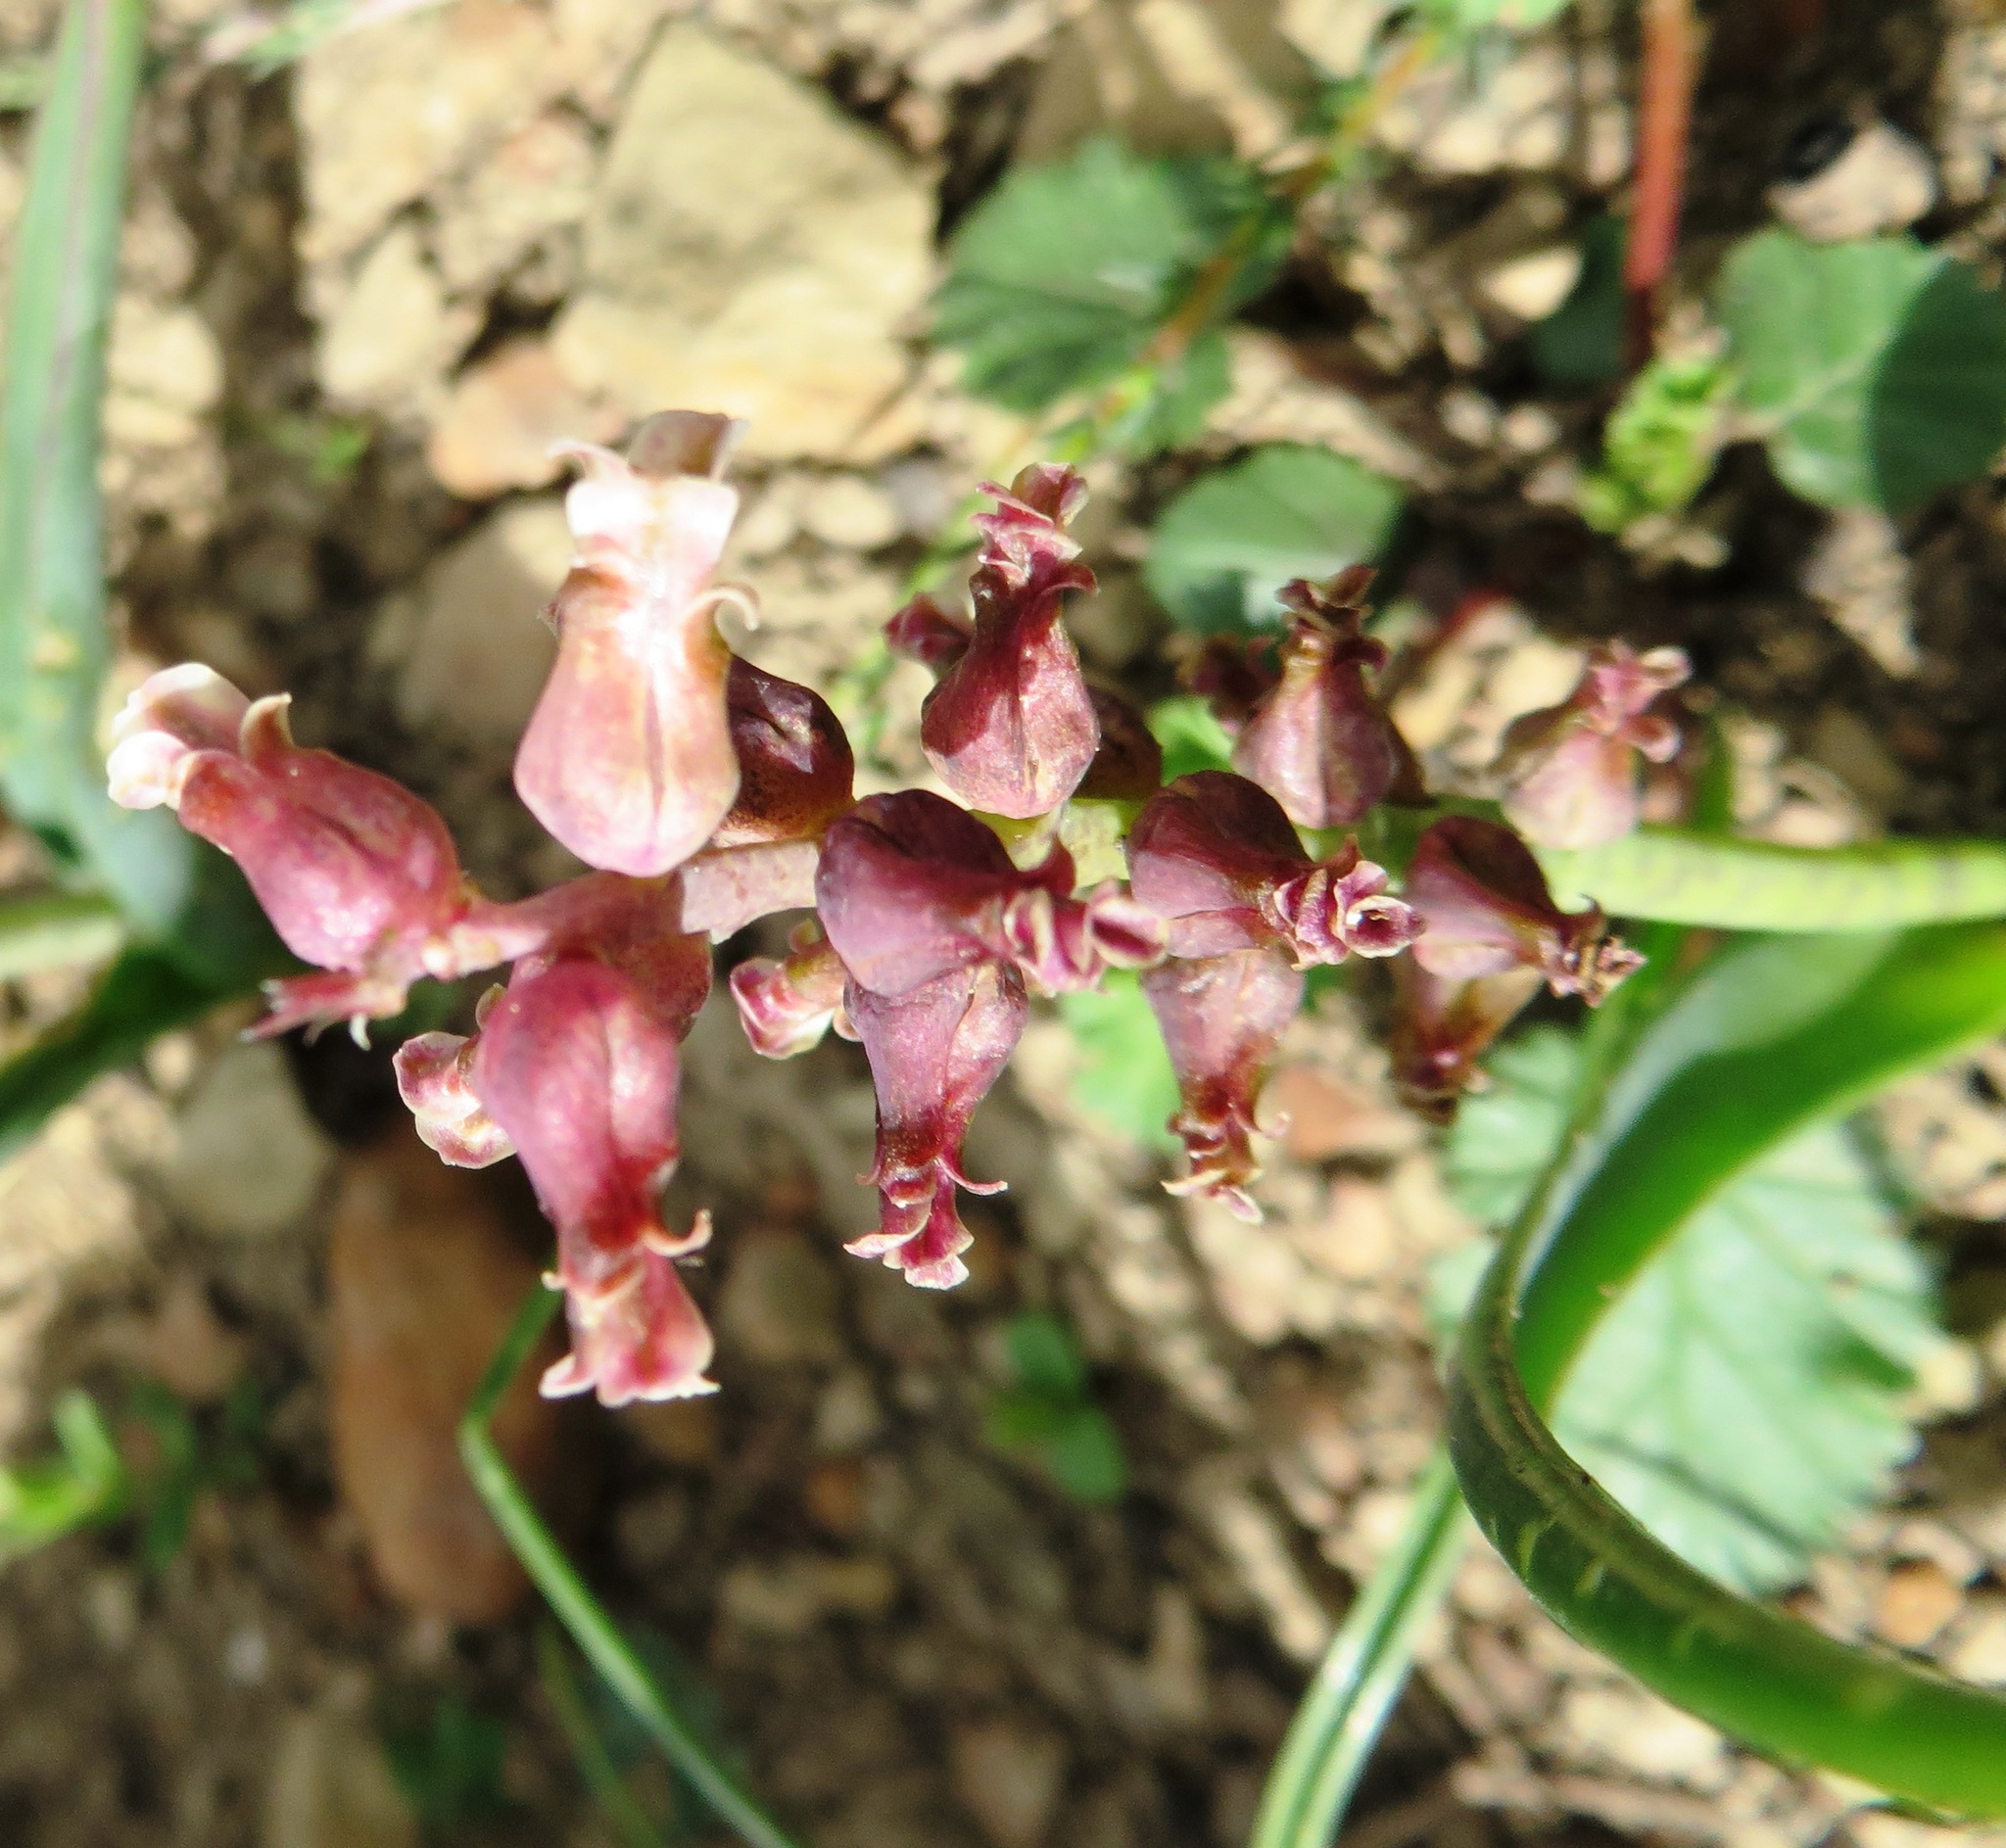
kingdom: Plantae
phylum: Tracheophyta
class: Liliopsida
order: Asparagales
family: Asparagaceae
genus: Lachenalia
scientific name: Lachenalia variegata
